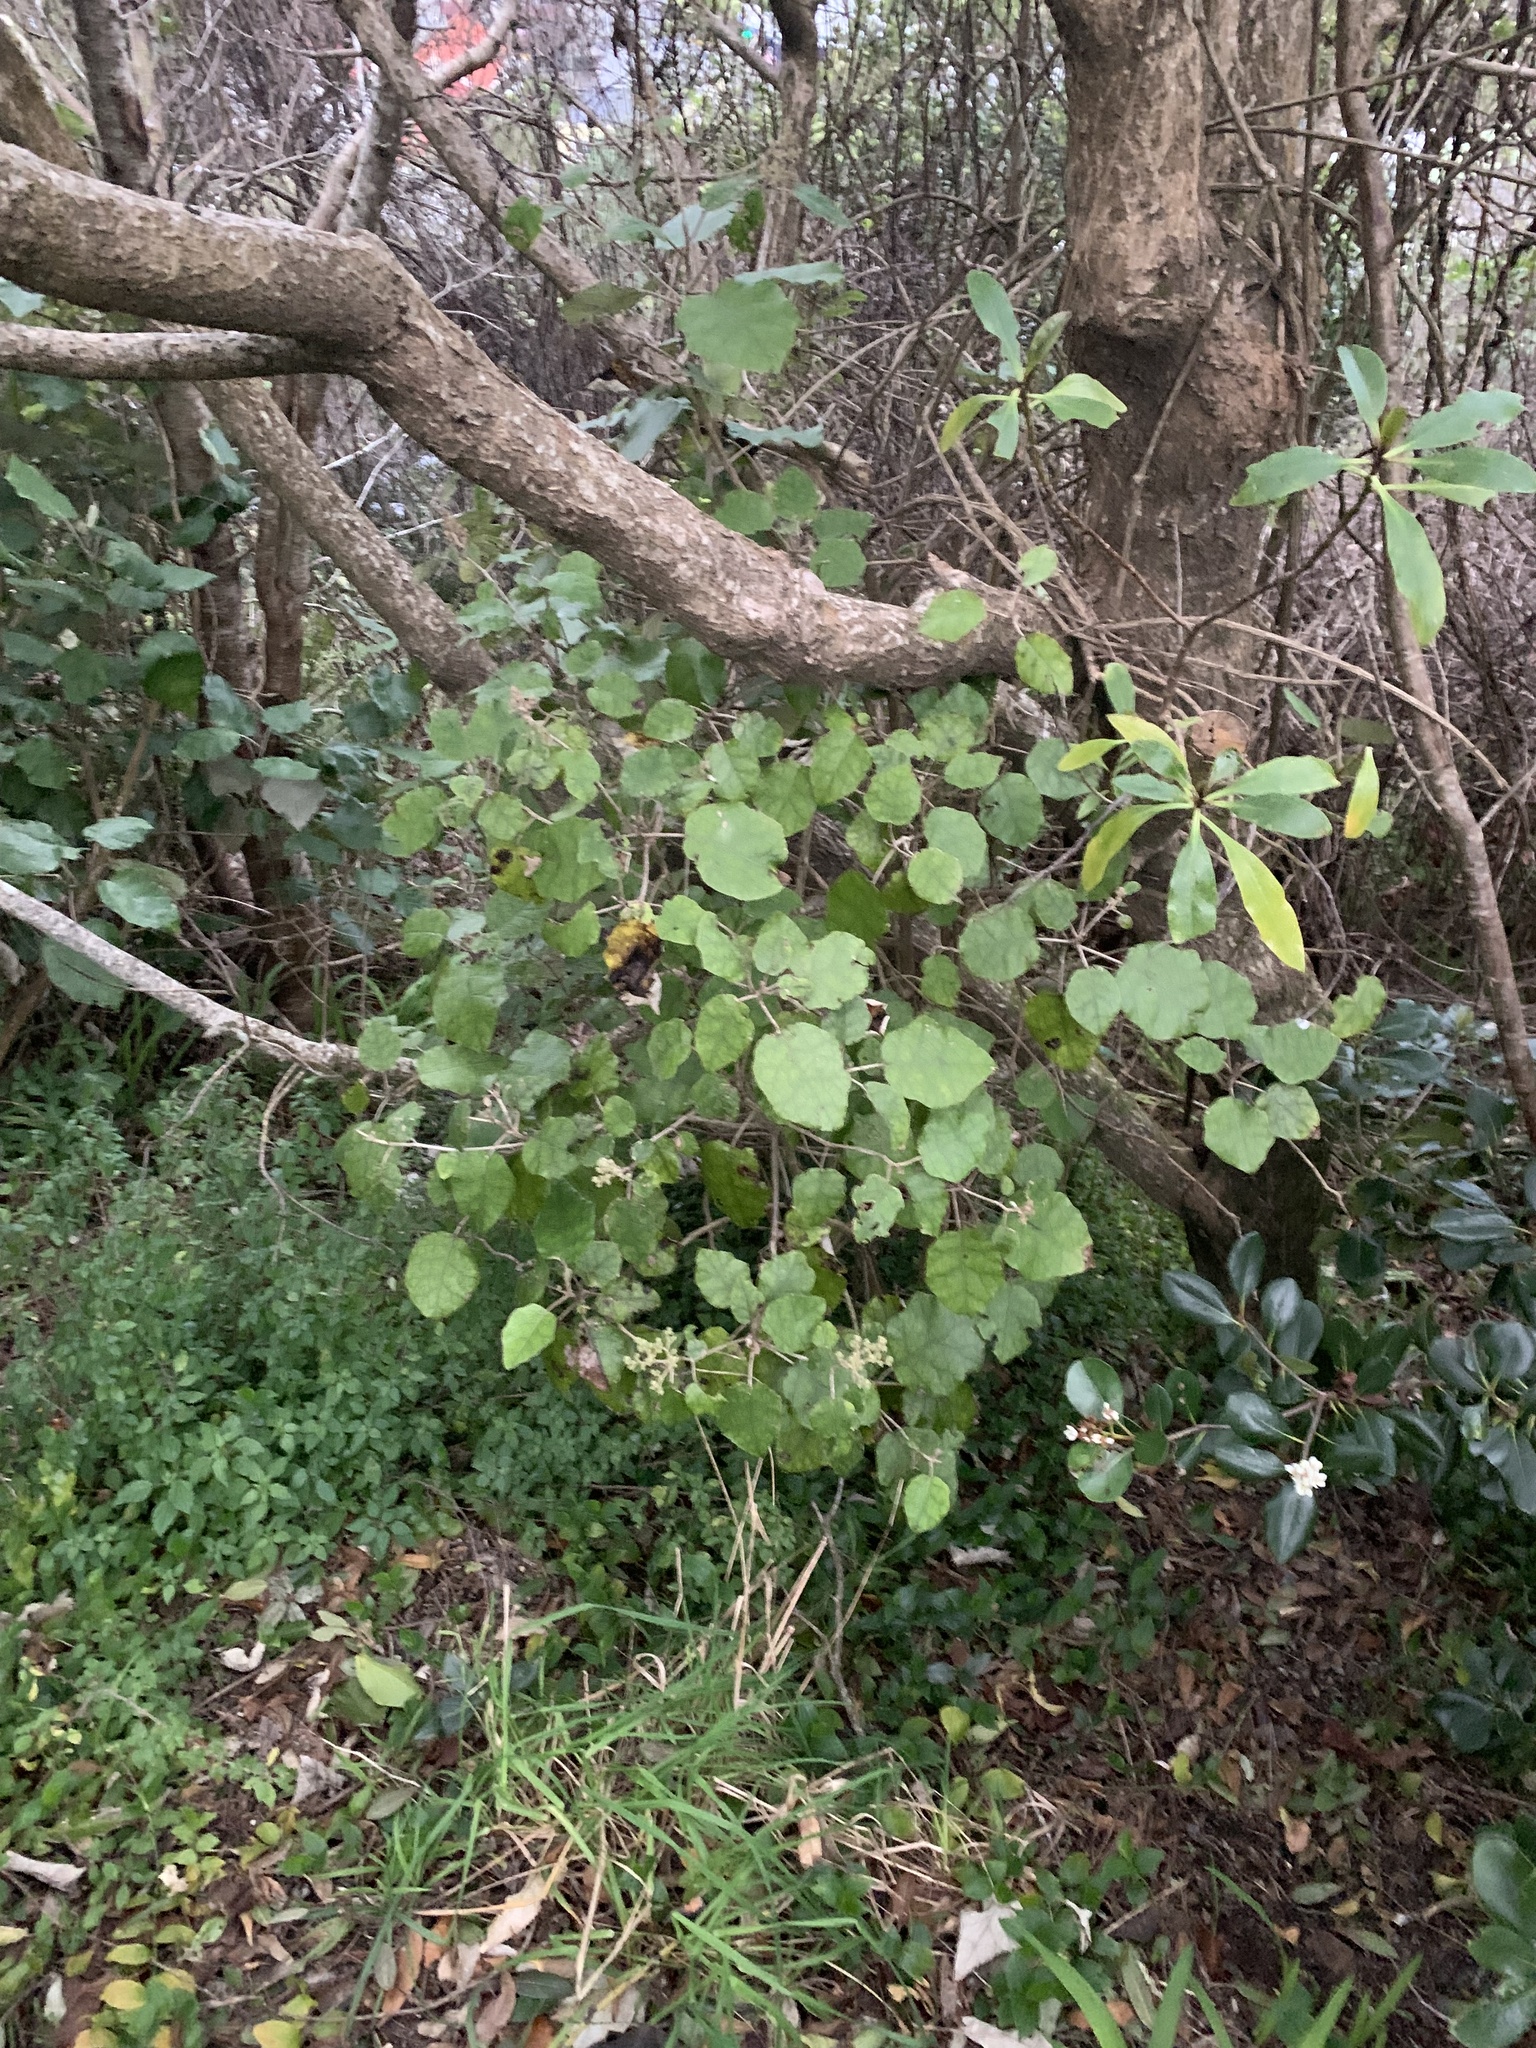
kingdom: Plantae
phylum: Tracheophyta
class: Magnoliopsida
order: Asterales
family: Asteraceae
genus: Brachyglottis
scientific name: Brachyglottis repanda
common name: Hedge ragwort
